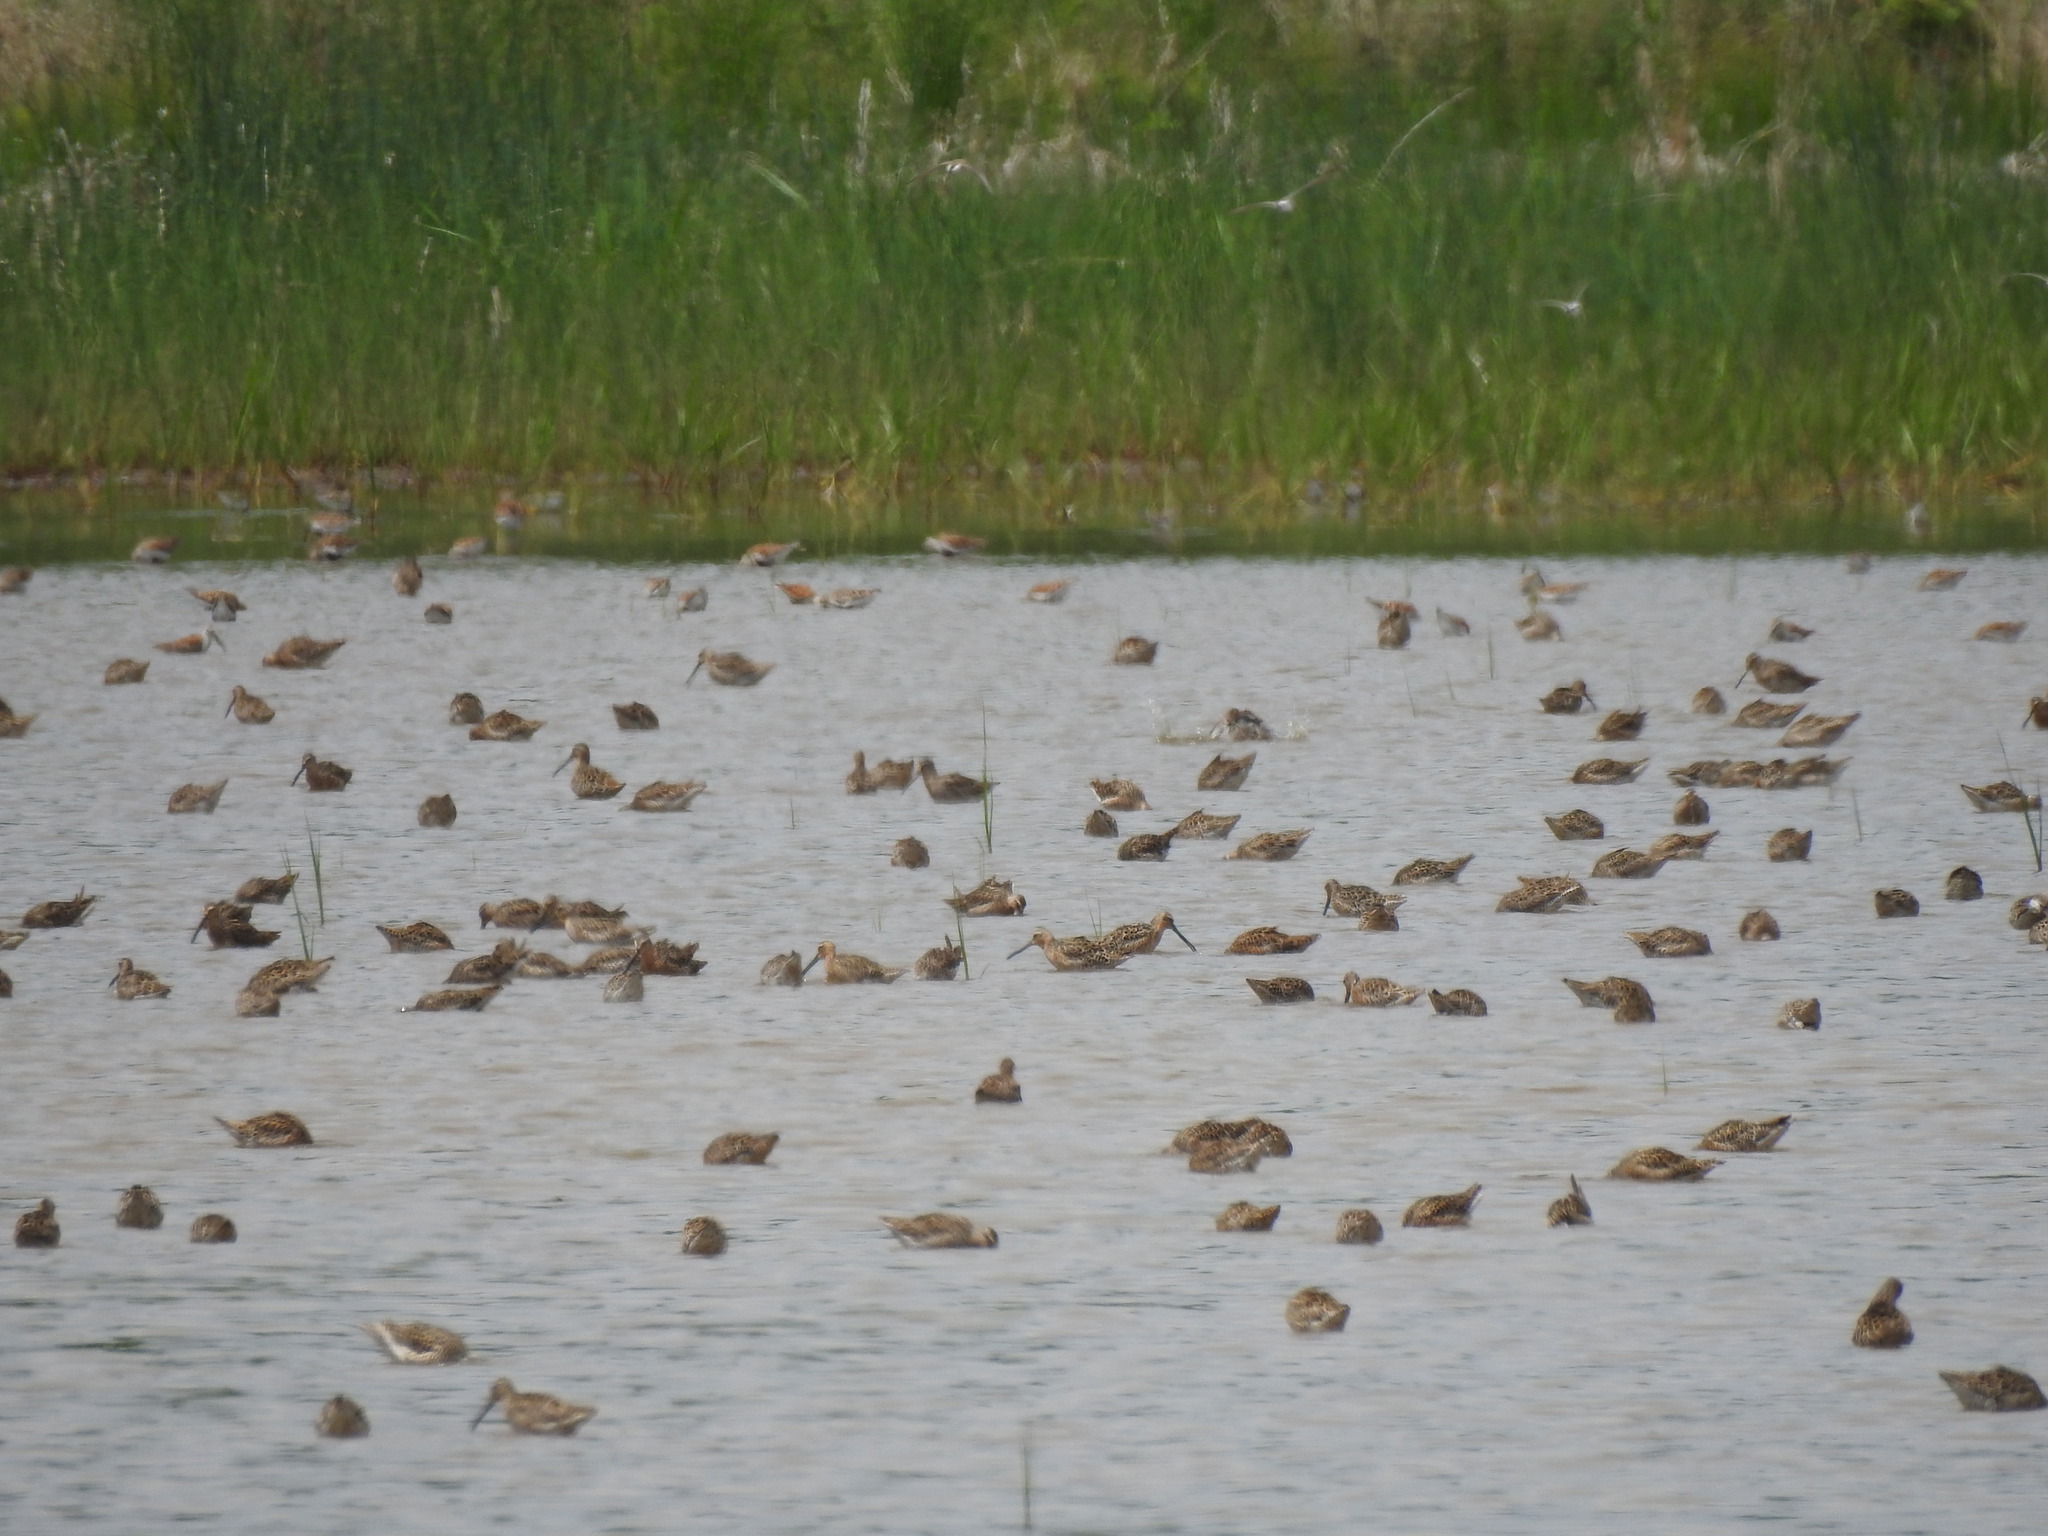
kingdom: Animalia
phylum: Chordata
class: Aves
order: Charadriiformes
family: Scolopacidae
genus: Limnodromus
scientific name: Limnodromus griseus
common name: Short-billed dowitcher
